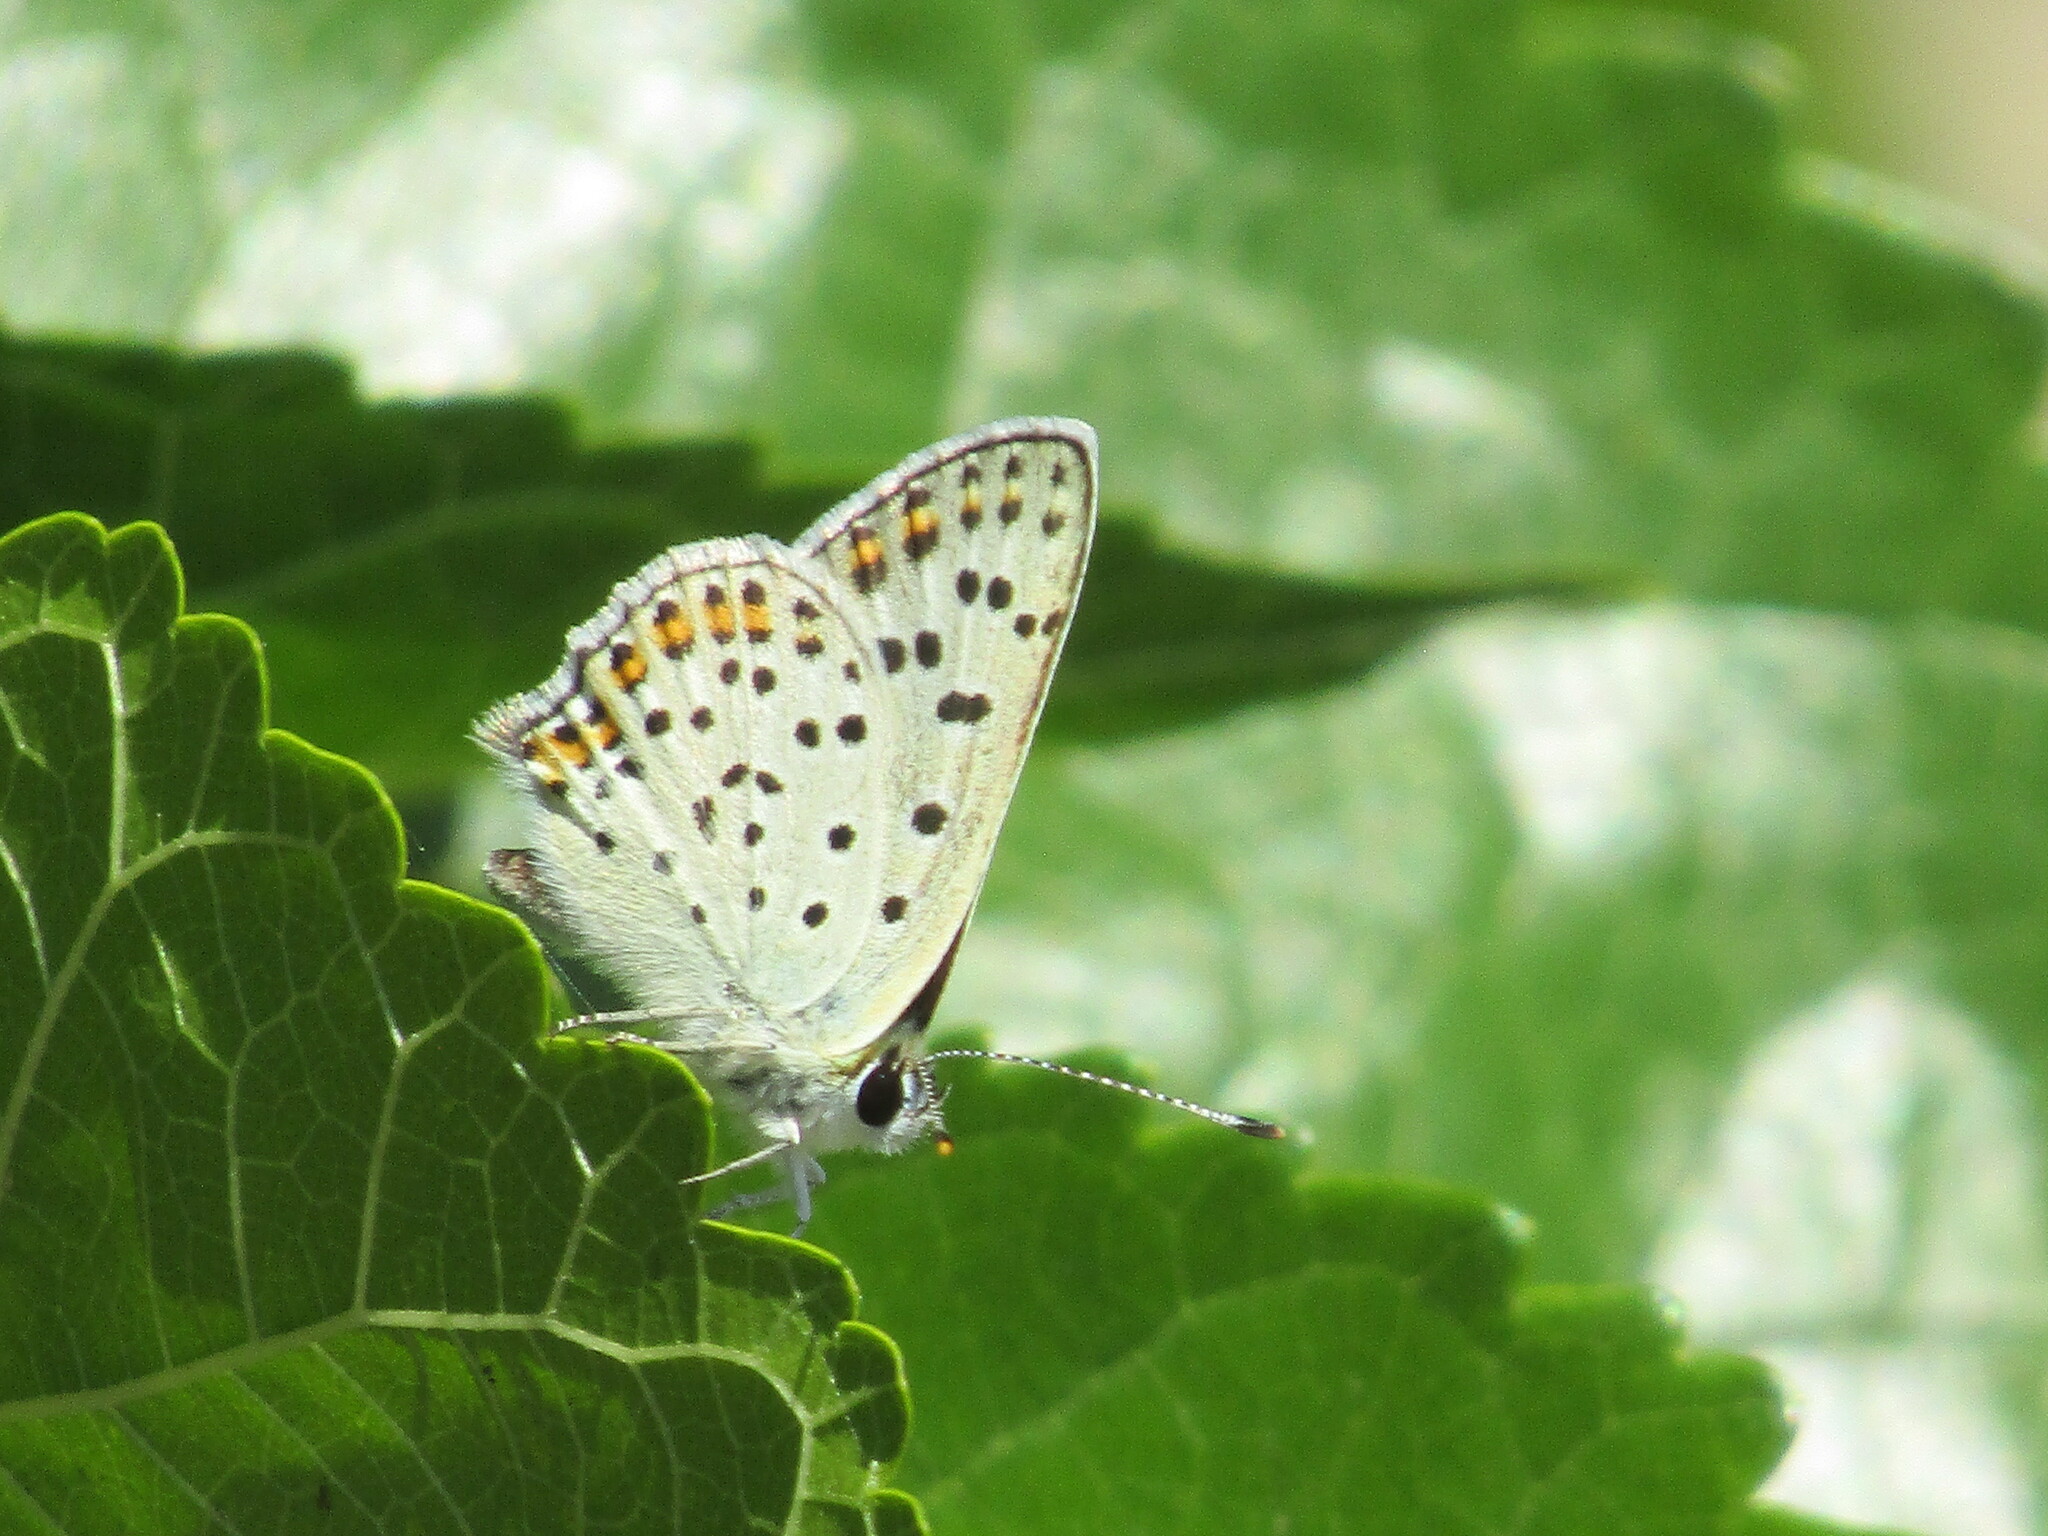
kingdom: Animalia
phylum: Arthropoda
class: Insecta
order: Lepidoptera
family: Lycaenidae
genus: Loweia
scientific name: Loweia tityrus
